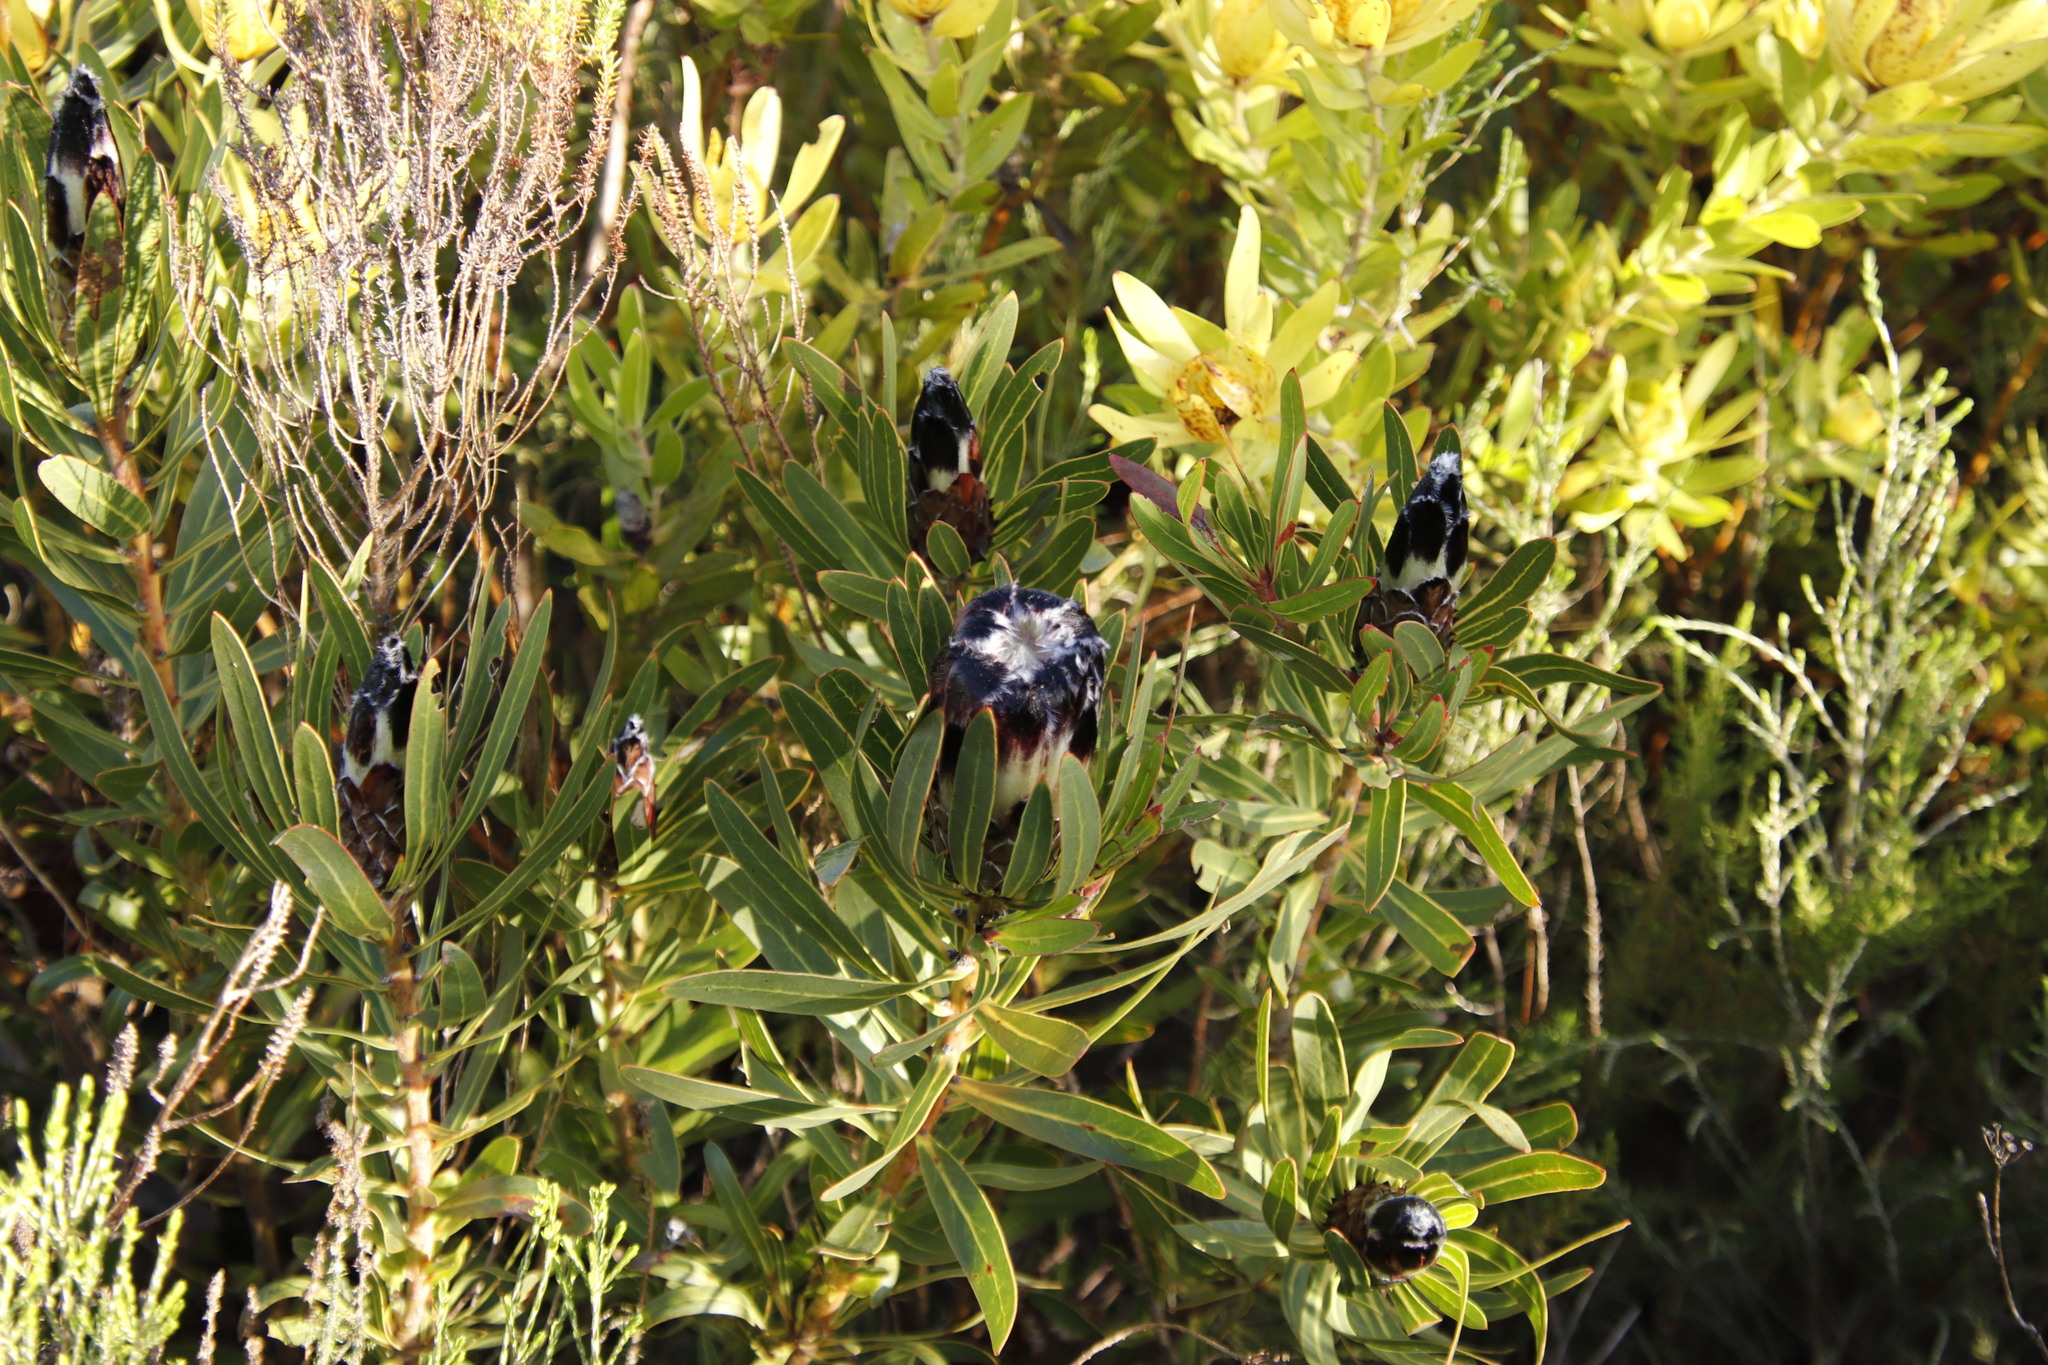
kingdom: Plantae
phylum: Tracheophyta
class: Magnoliopsida
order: Proteales
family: Proteaceae
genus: Protea
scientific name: Protea lepidocarpodendron
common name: Black-bearded protea
